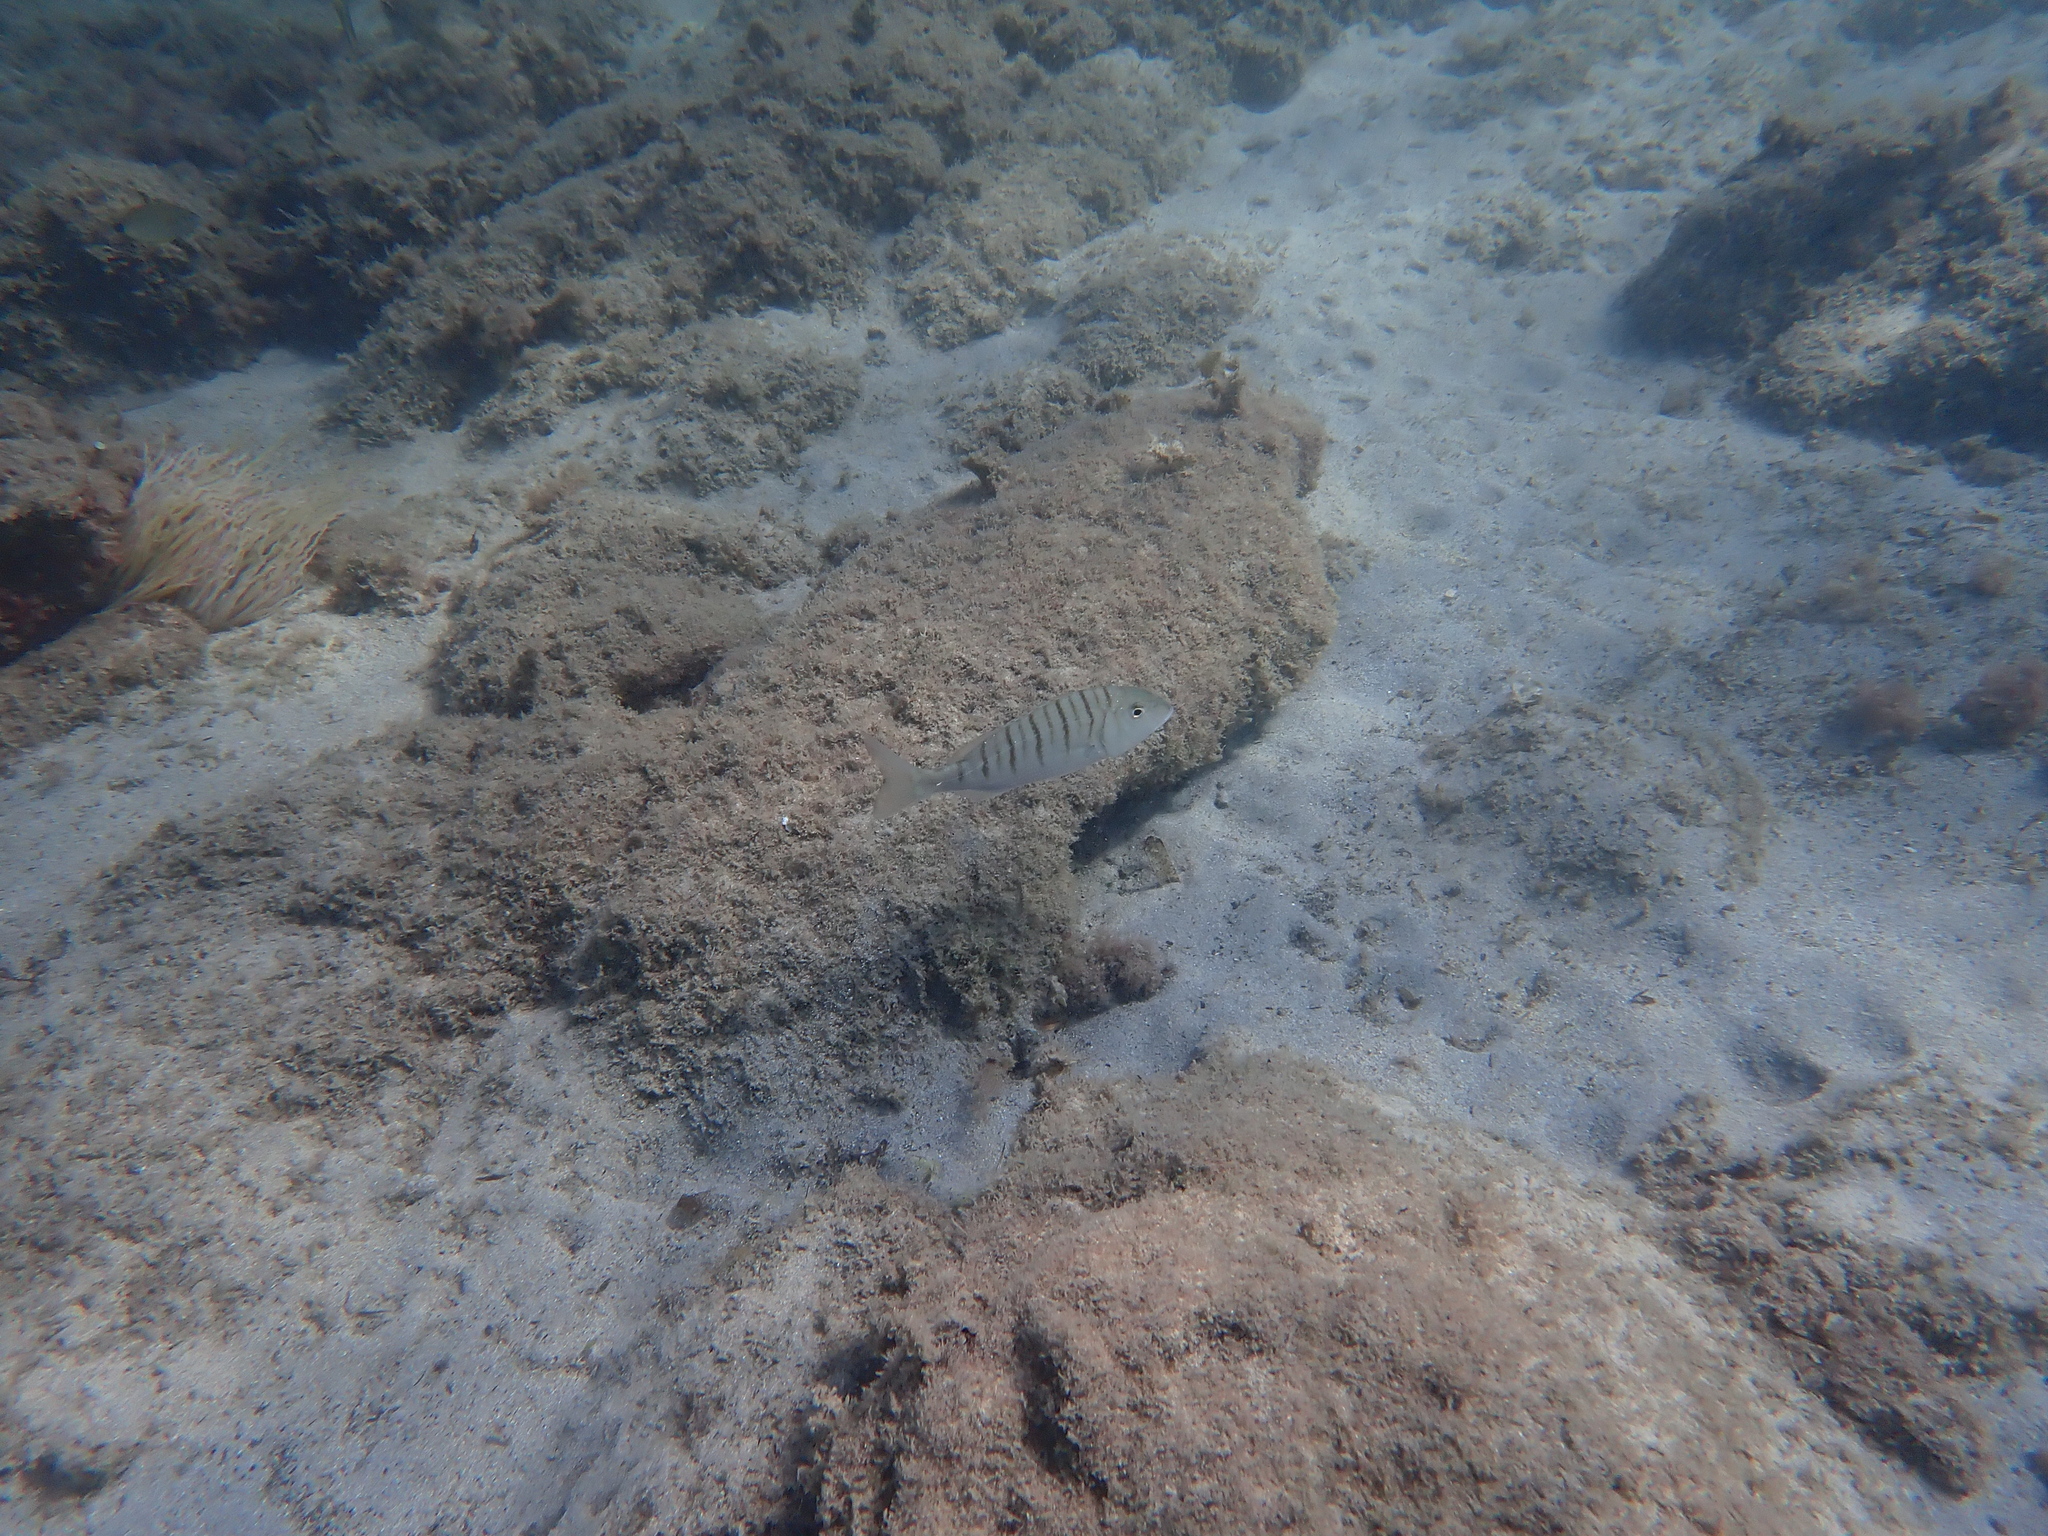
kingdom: Animalia
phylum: Chordata
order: Perciformes
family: Sparidae
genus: Lithognathus
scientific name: Lithognathus mormyrus
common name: Sand steenbras
